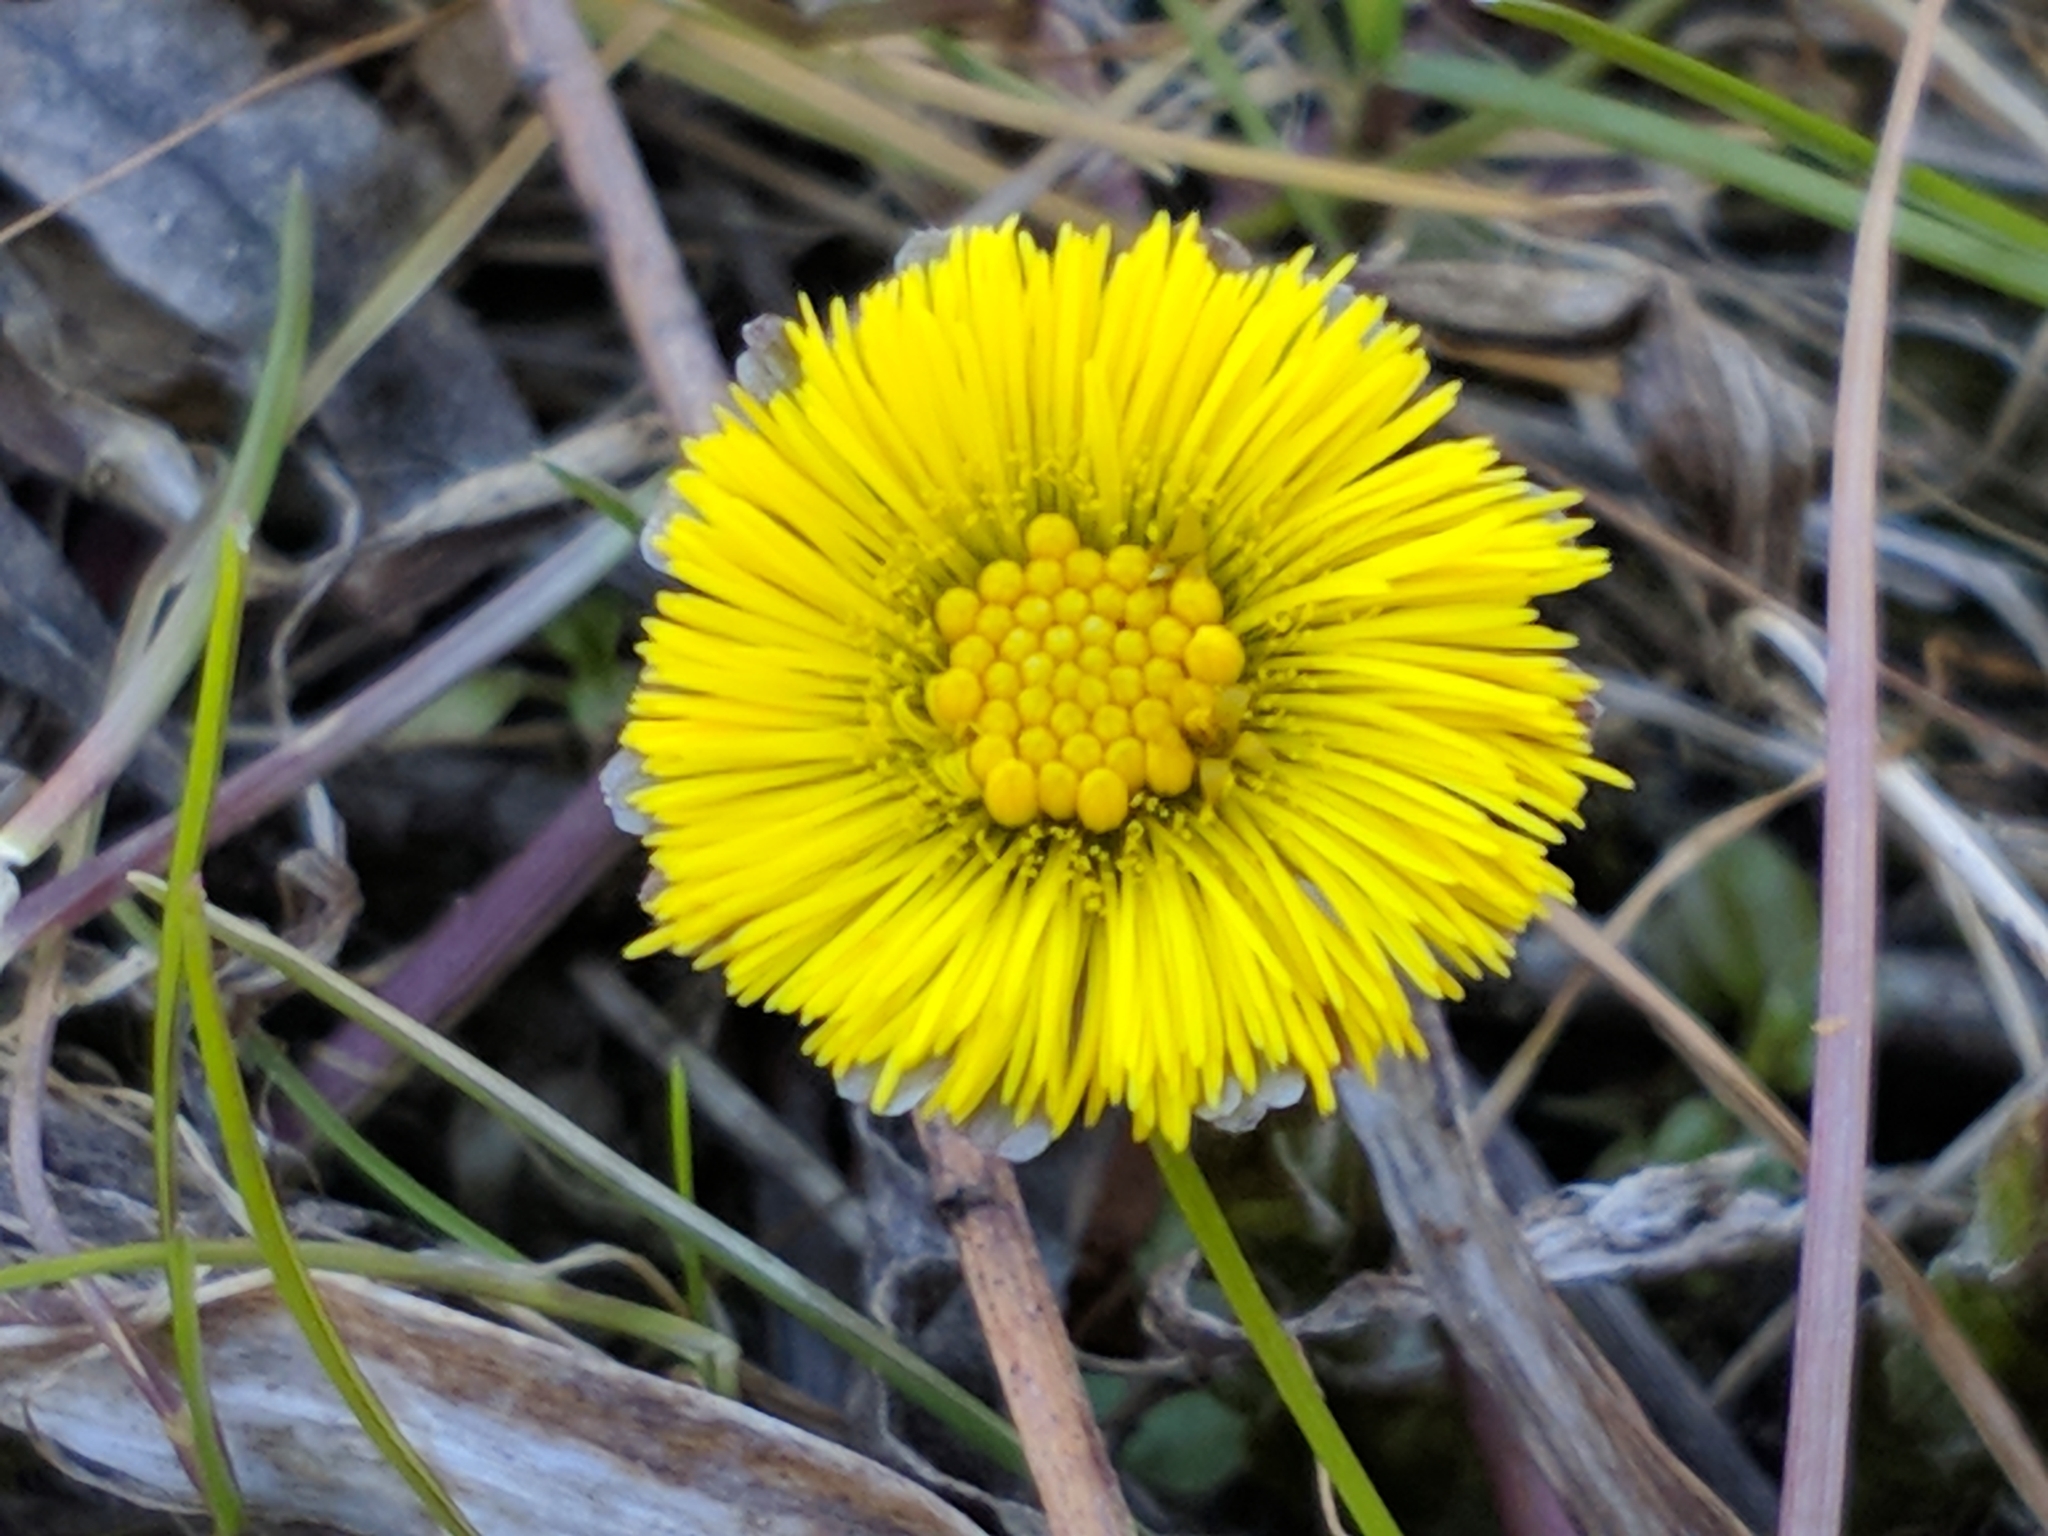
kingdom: Plantae
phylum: Tracheophyta
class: Magnoliopsida
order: Asterales
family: Asteraceae
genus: Tussilago
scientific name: Tussilago farfara
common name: Coltsfoot
